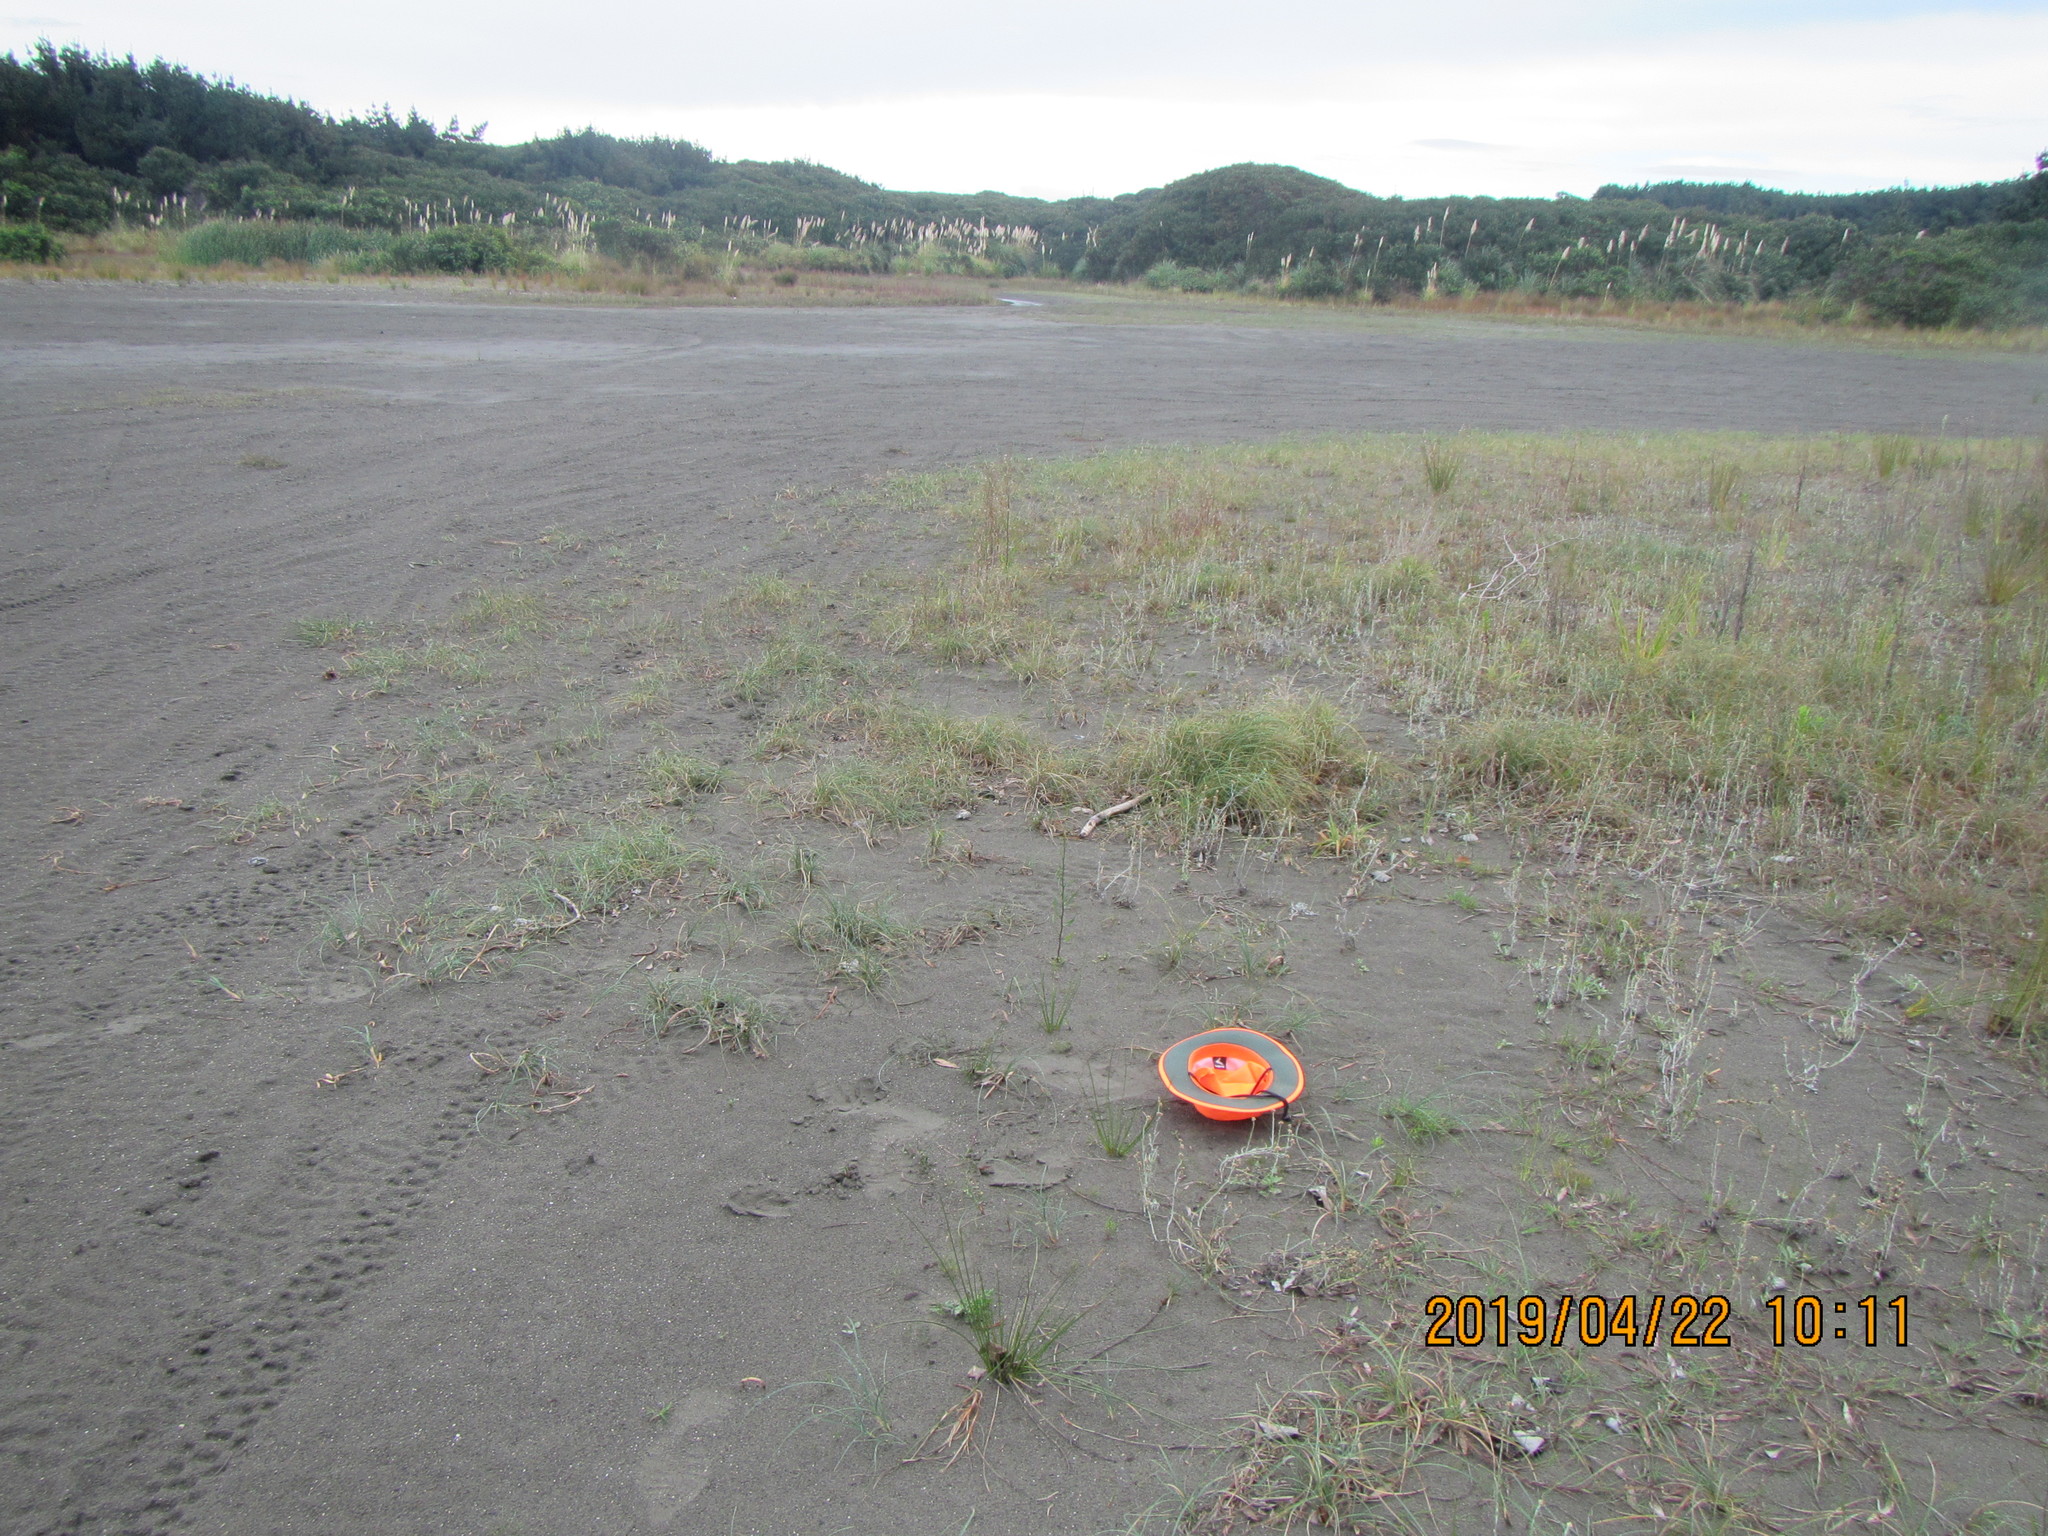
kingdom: Plantae
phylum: Tracheophyta
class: Liliopsida
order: Poales
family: Cyperaceae
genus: Isolepis
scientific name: Isolepis basilaris
